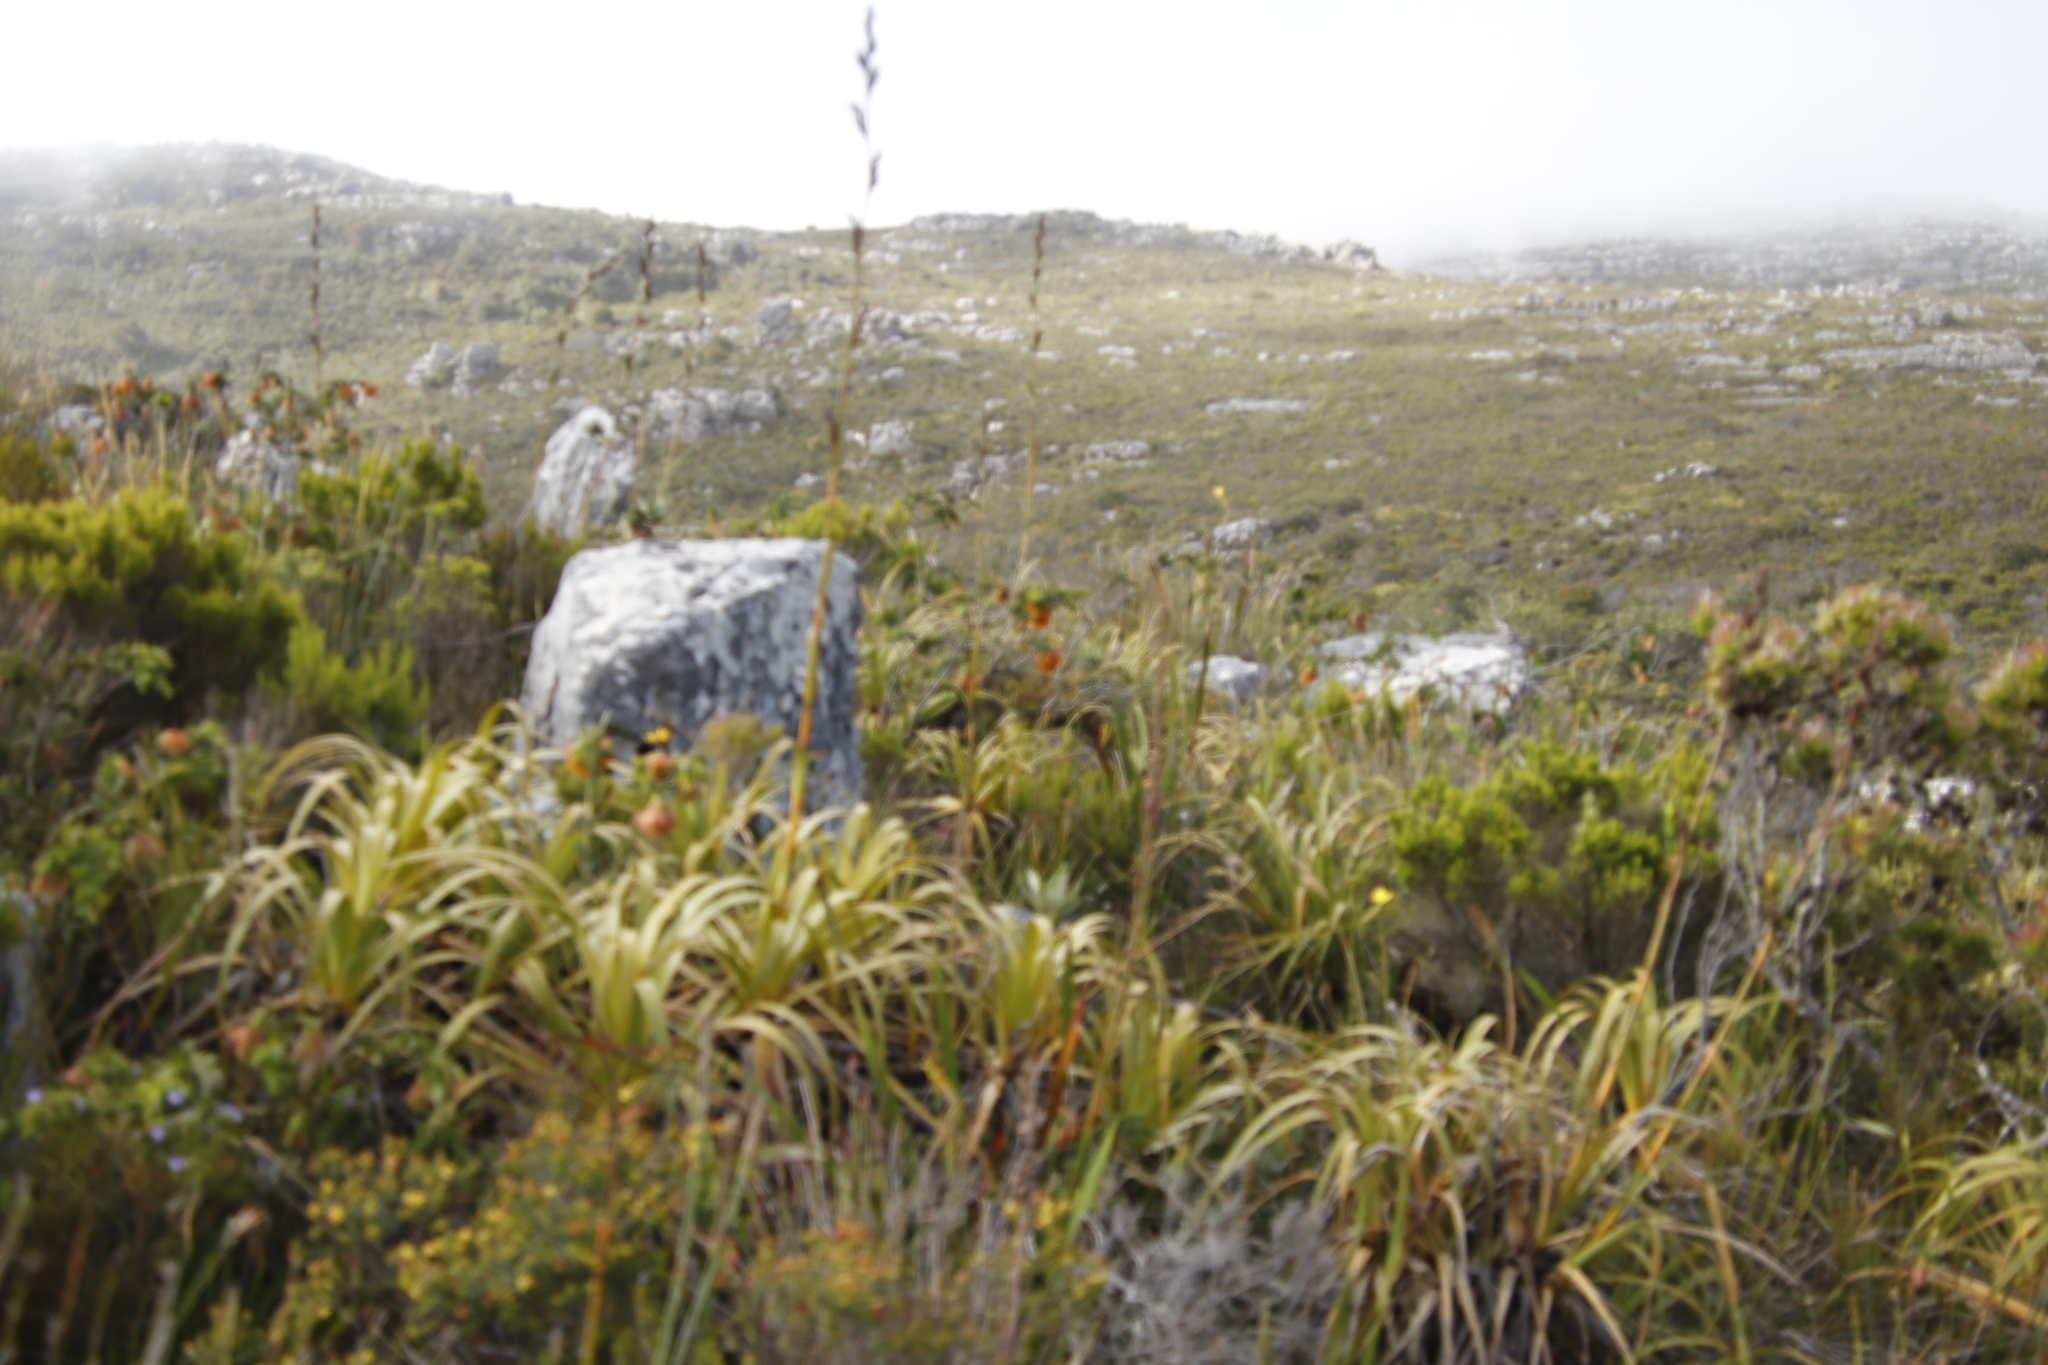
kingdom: Plantae
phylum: Tracheophyta
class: Liliopsida
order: Poales
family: Cyperaceae
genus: Tetraria
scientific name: Tetraria thermalis
